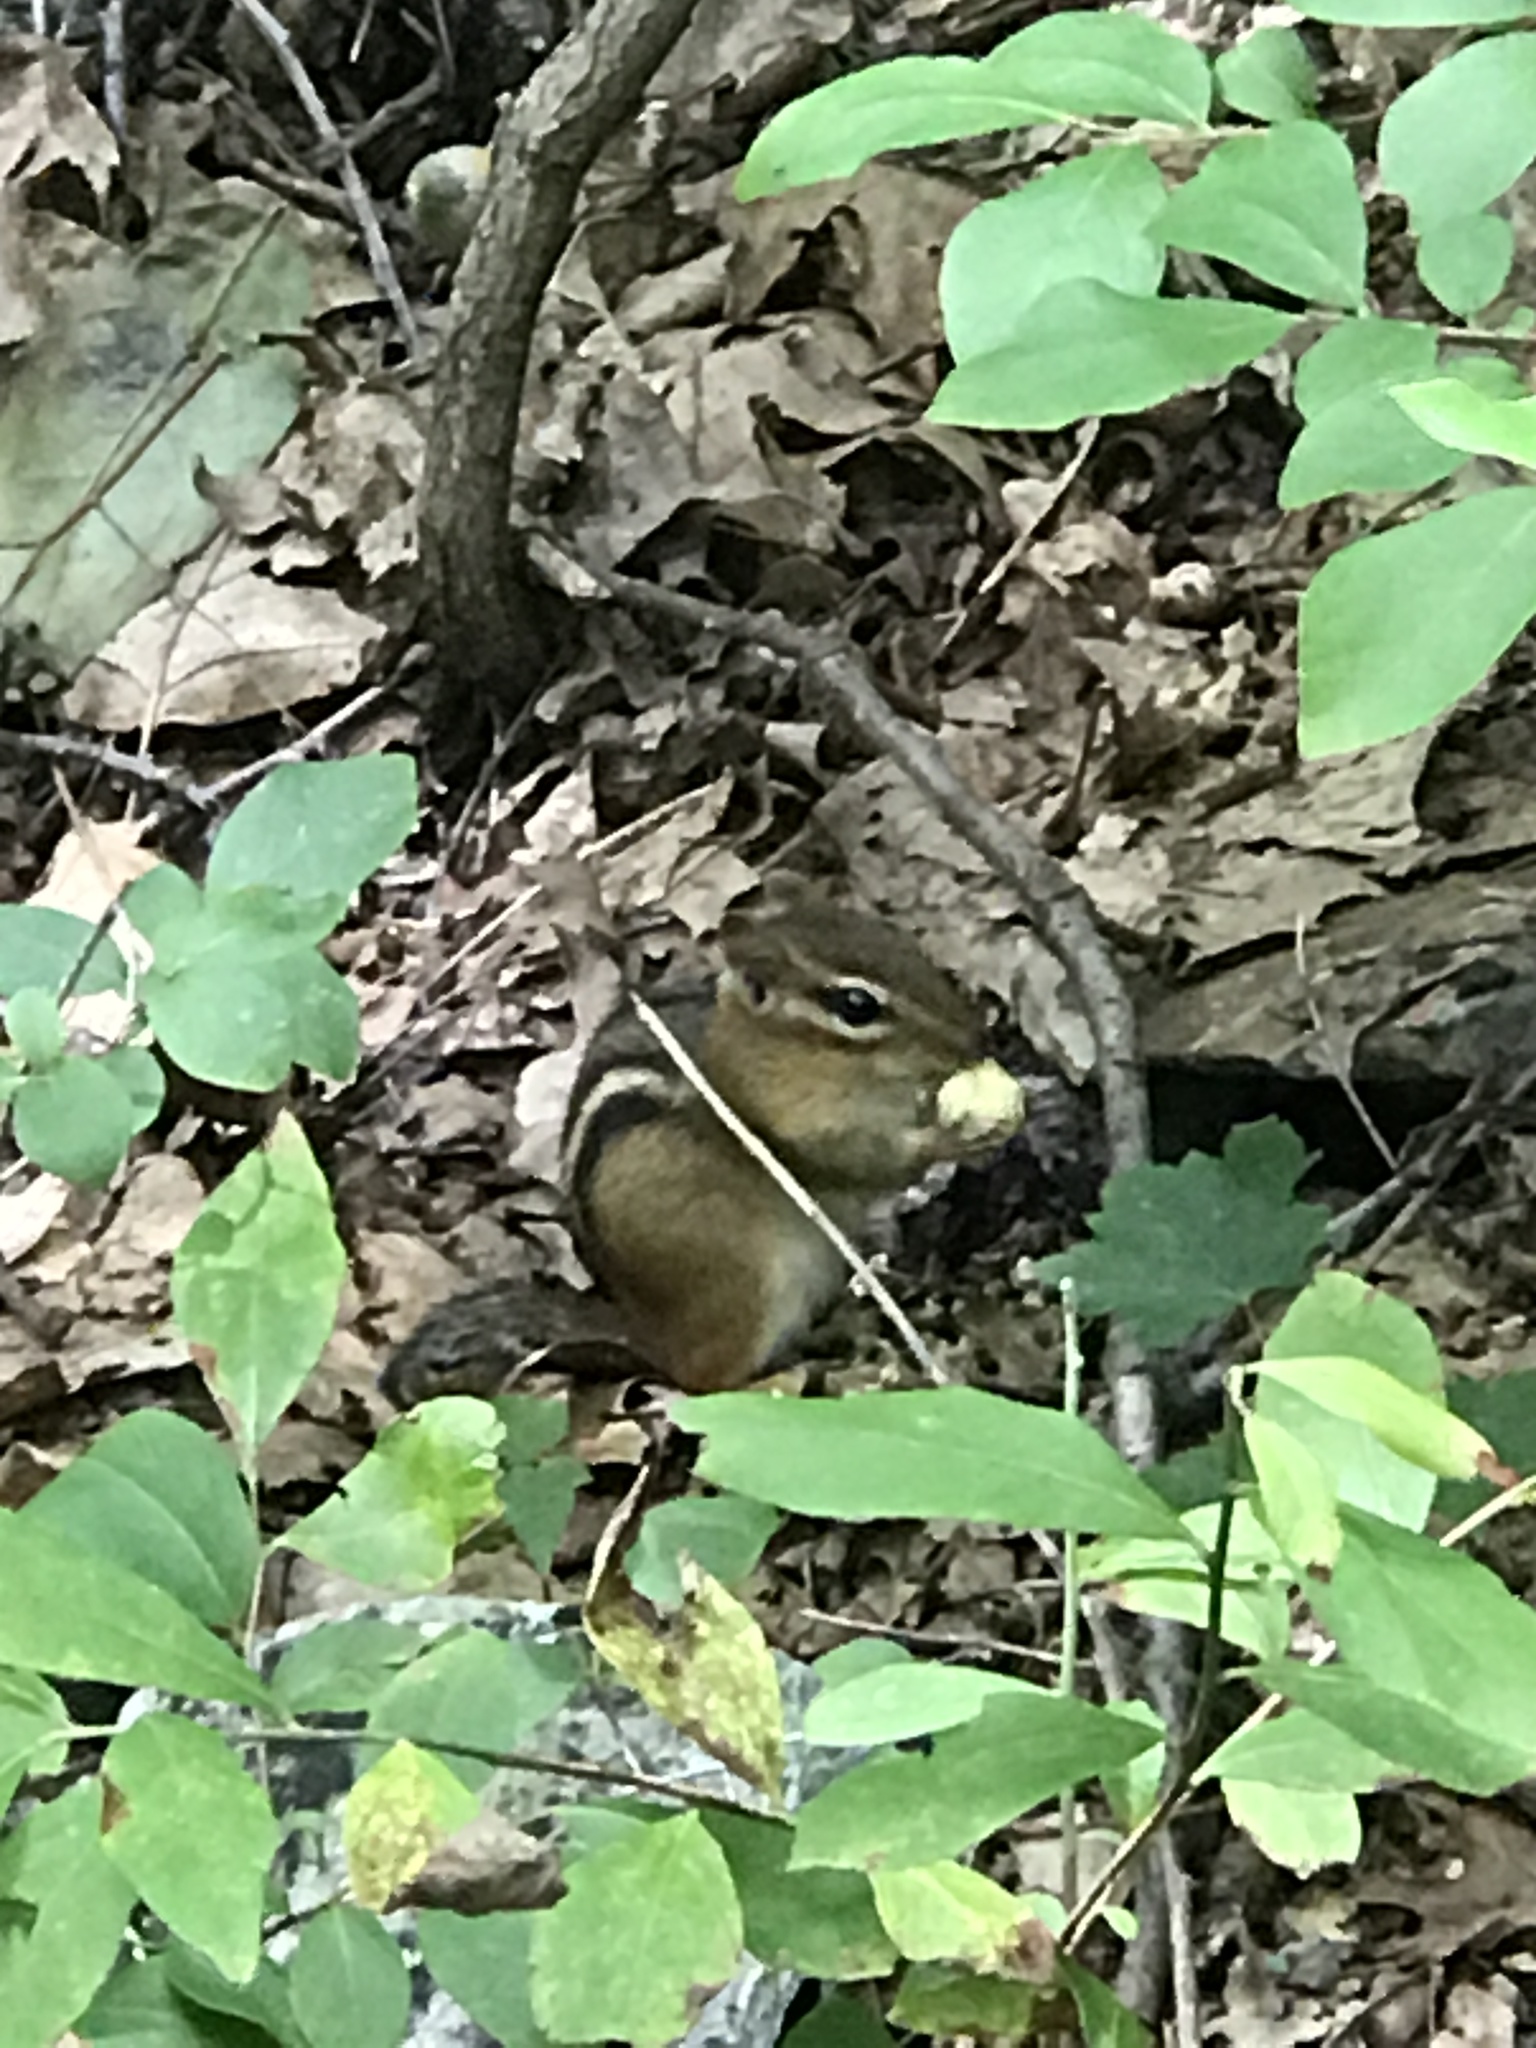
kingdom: Animalia
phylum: Chordata
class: Mammalia
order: Rodentia
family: Sciuridae
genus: Tamias
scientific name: Tamias striatus
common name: Eastern chipmunk
